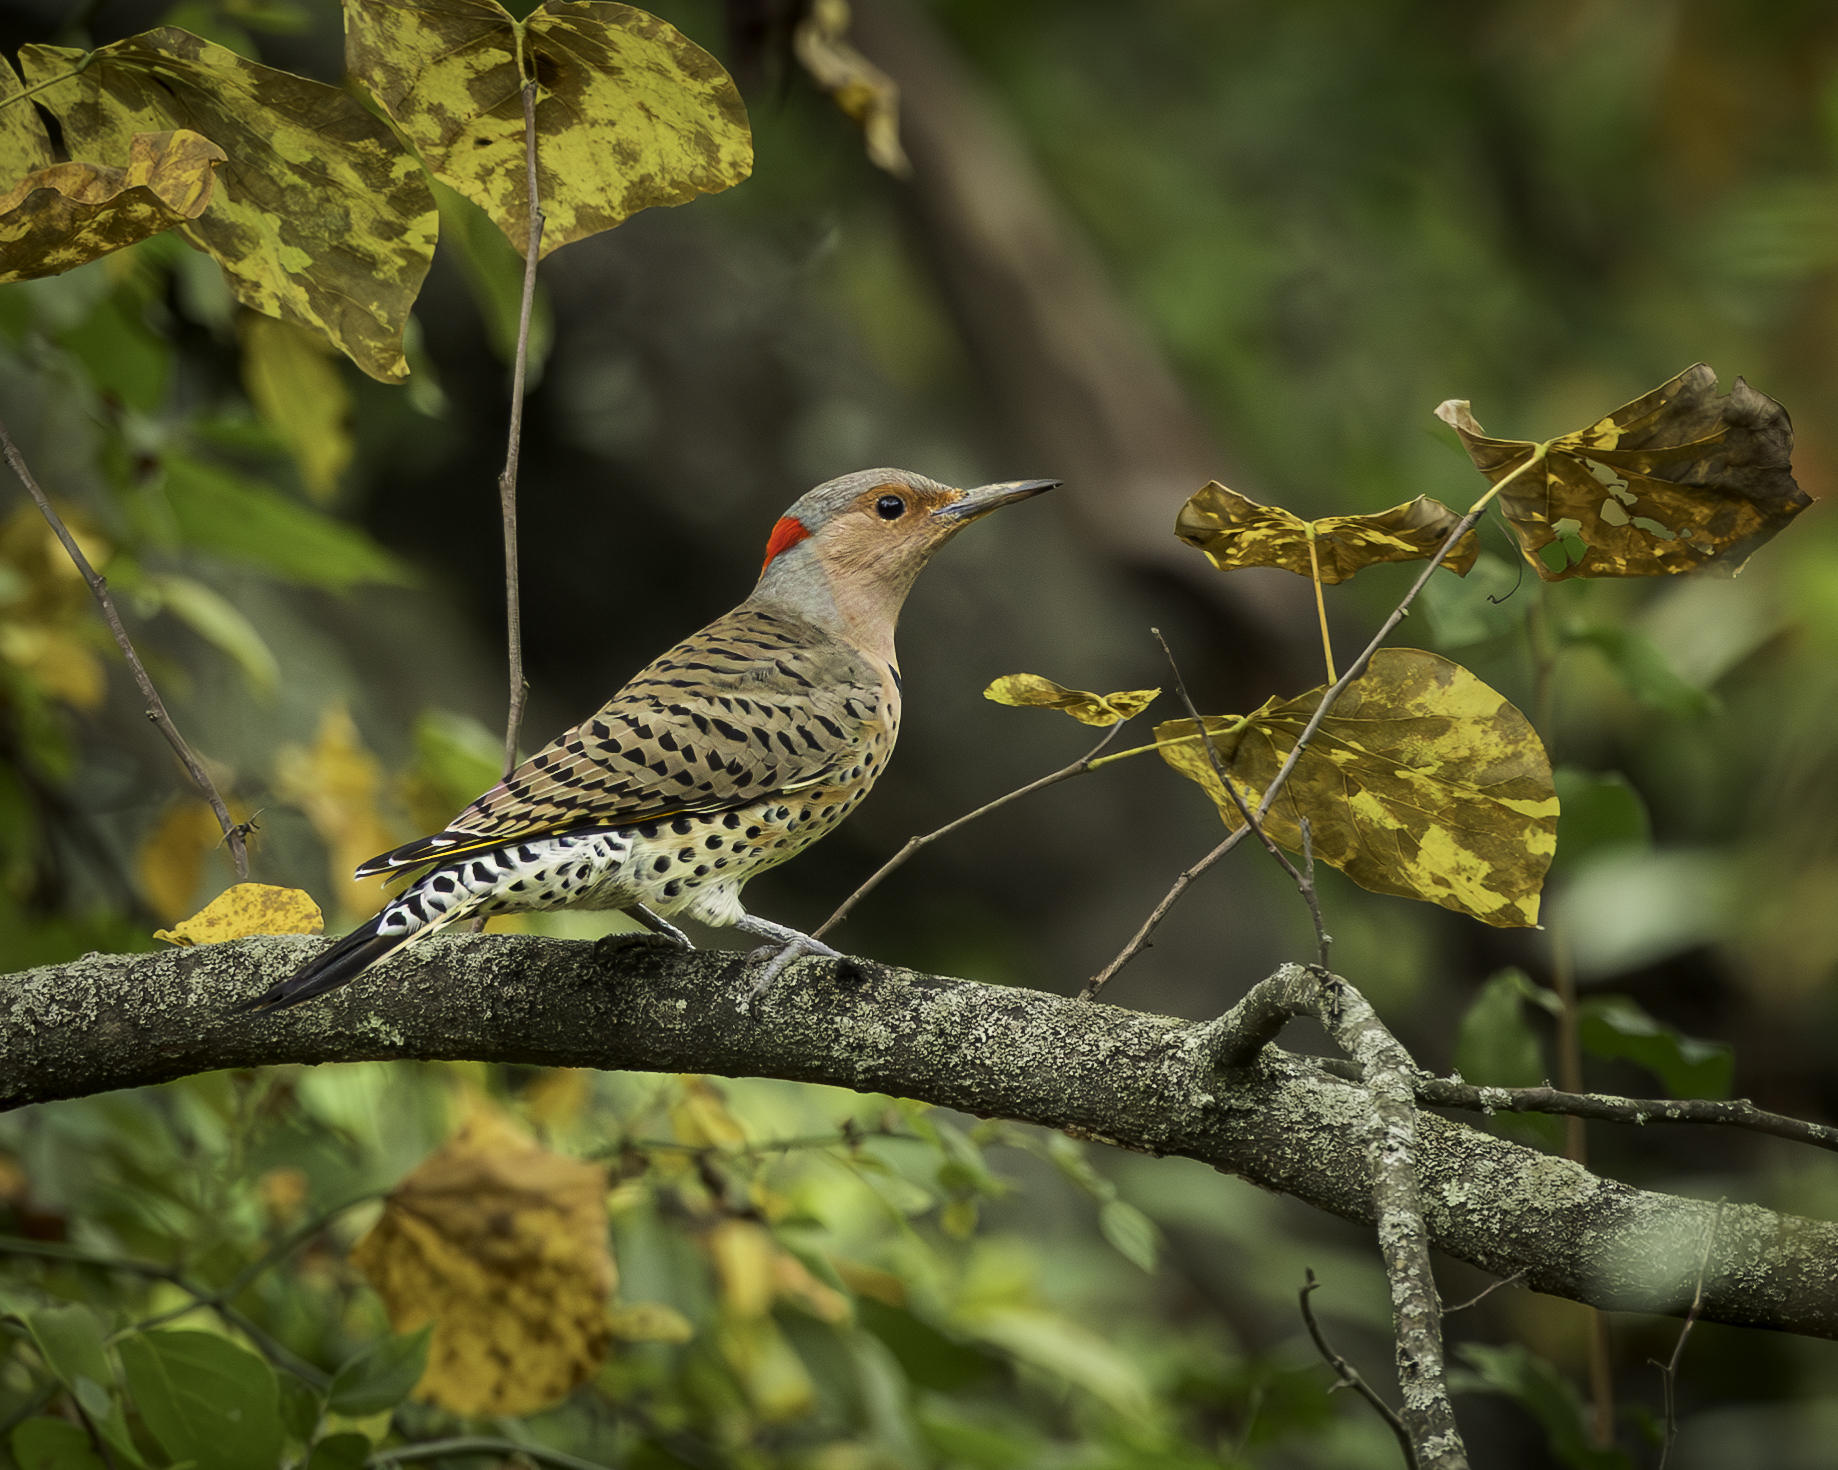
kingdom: Animalia
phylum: Chordata
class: Aves
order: Piciformes
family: Picidae
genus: Colaptes
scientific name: Colaptes auratus
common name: Northern flicker
